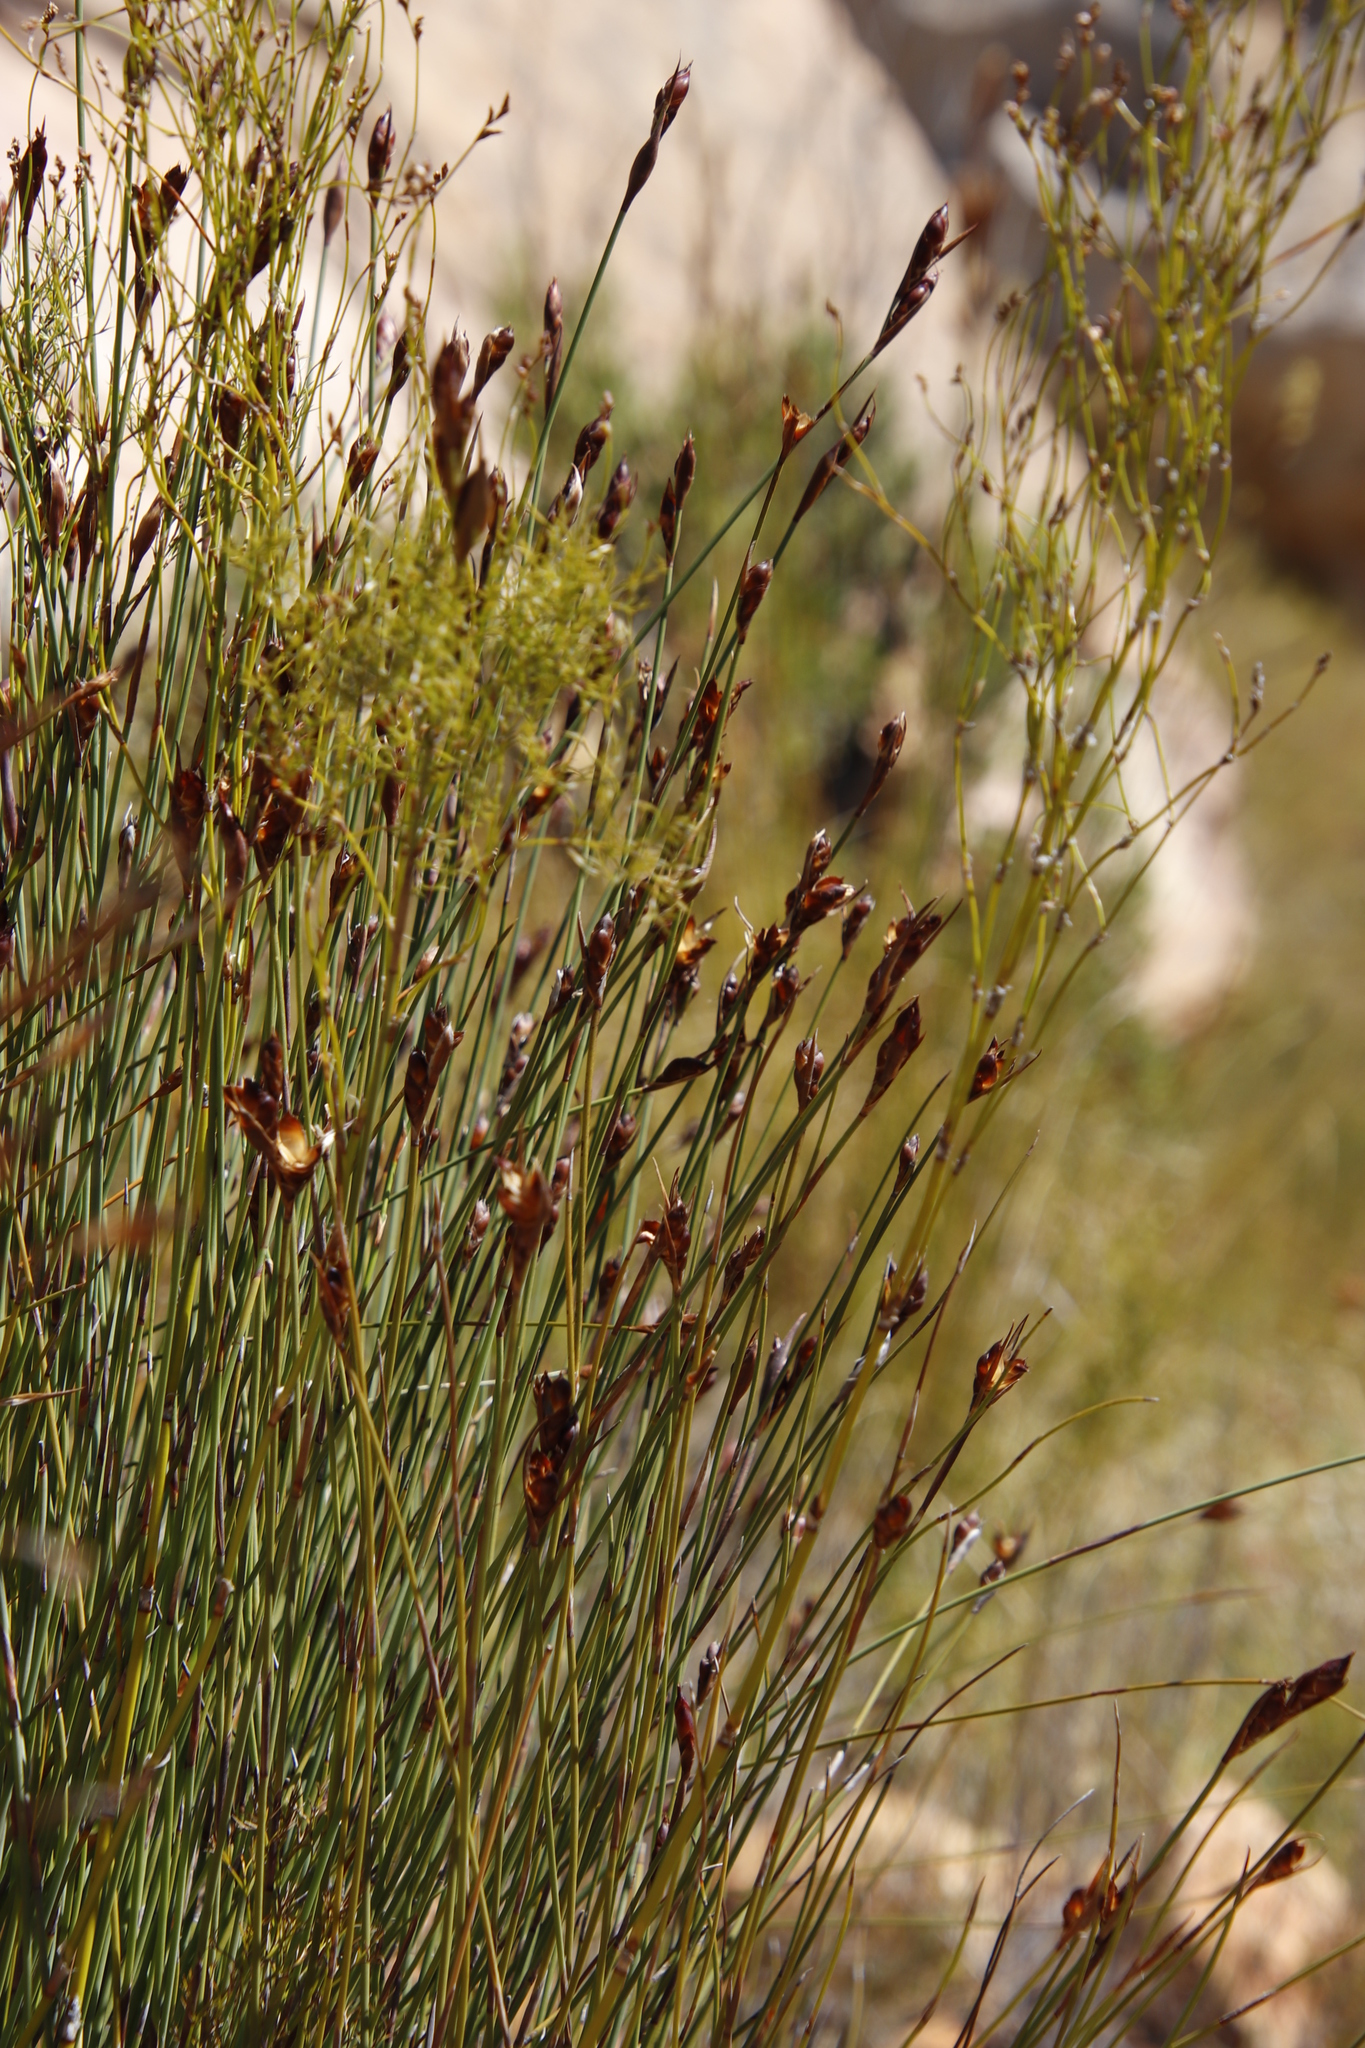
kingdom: Plantae
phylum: Tracheophyta
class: Liliopsida
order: Poales
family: Restionaceae
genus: Cannomois
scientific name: Cannomois parviflora
